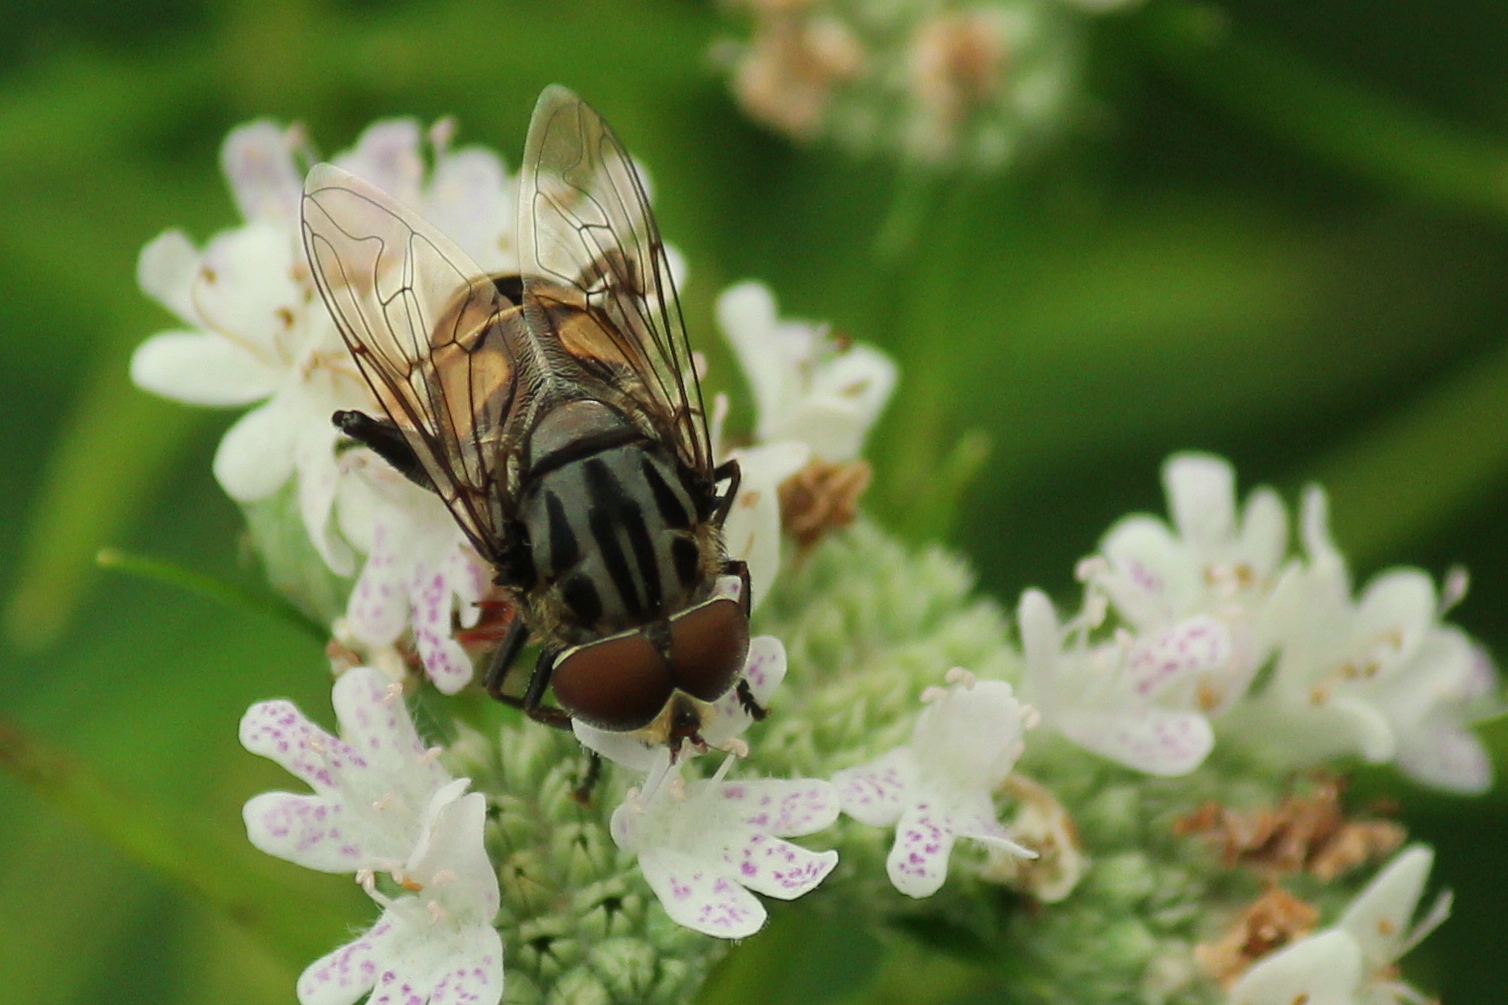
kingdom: Animalia
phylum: Arthropoda
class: Insecta
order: Diptera
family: Syrphidae
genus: Palpada
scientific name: Palpada furcata
